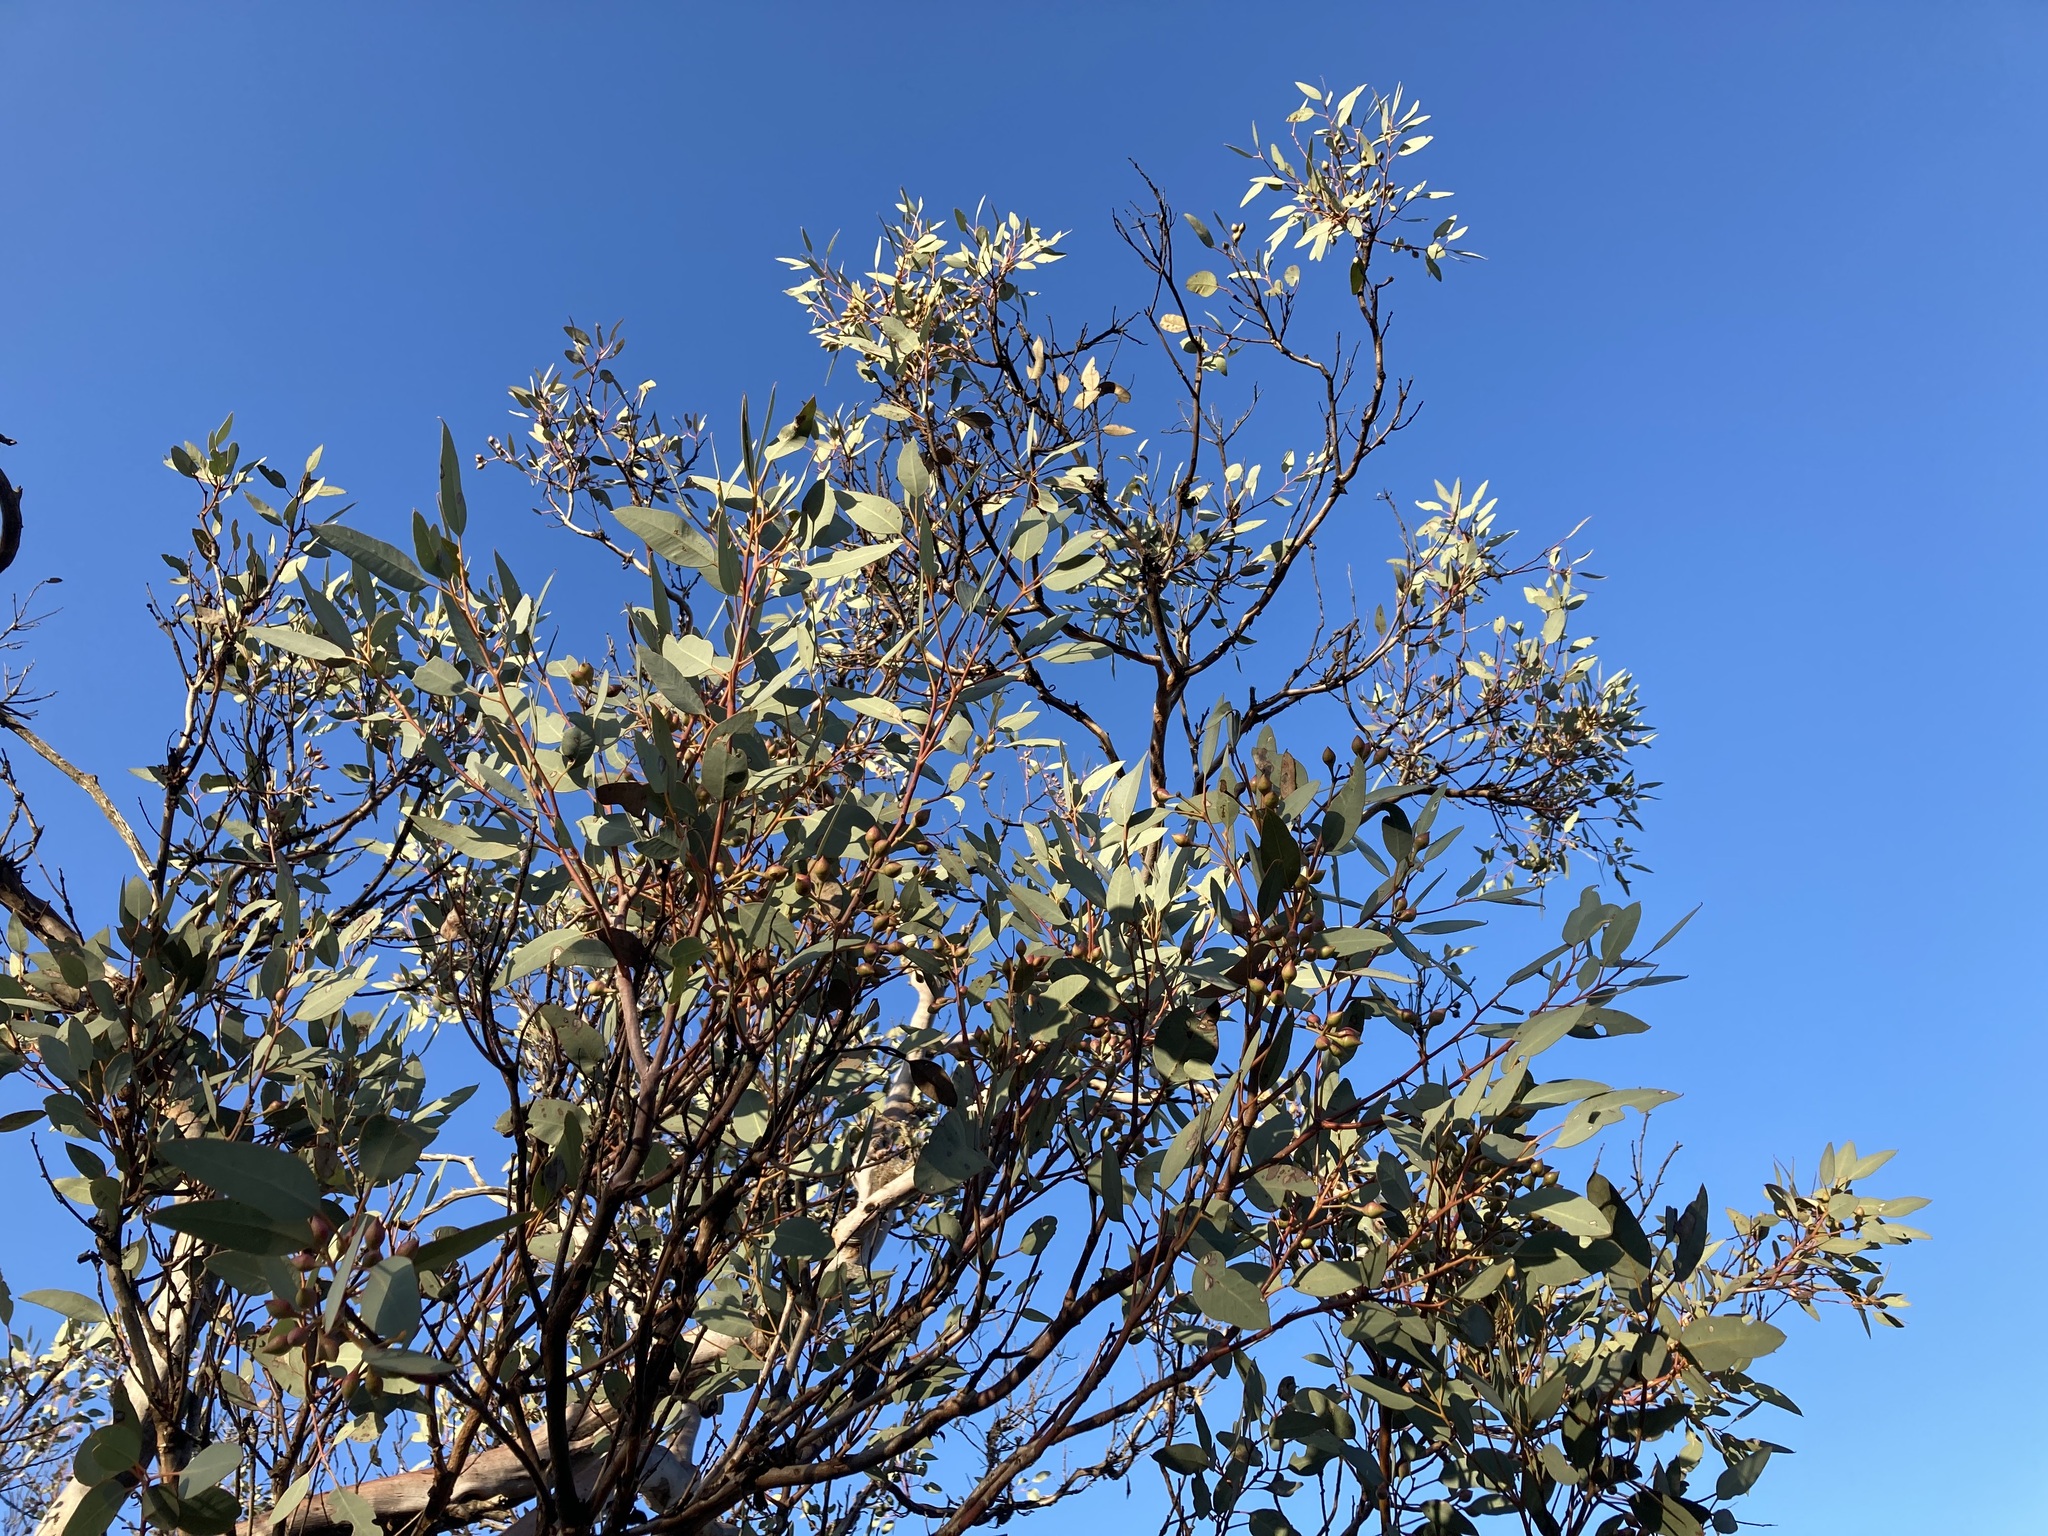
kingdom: Plantae
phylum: Tracheophyta
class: Magnoliopsida
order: Myrtales
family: Myrtaceae
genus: Eucalyptus
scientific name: Eucalyptus drummondii
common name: Drummond's mallee
